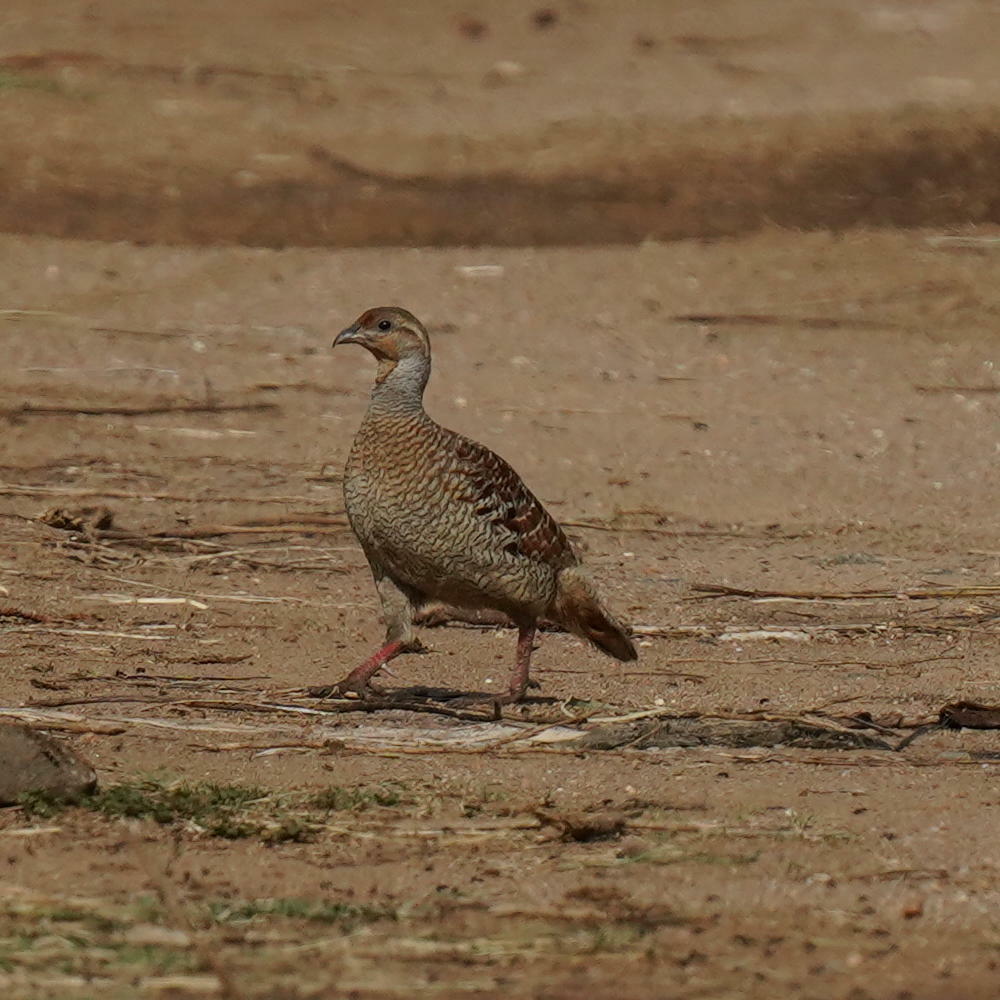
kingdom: Animalia
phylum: Chordata
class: Aves
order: Galliformes
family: Phasianidae
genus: Ortygornis
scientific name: Ortygornis pondicerianus
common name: Grey francolin
